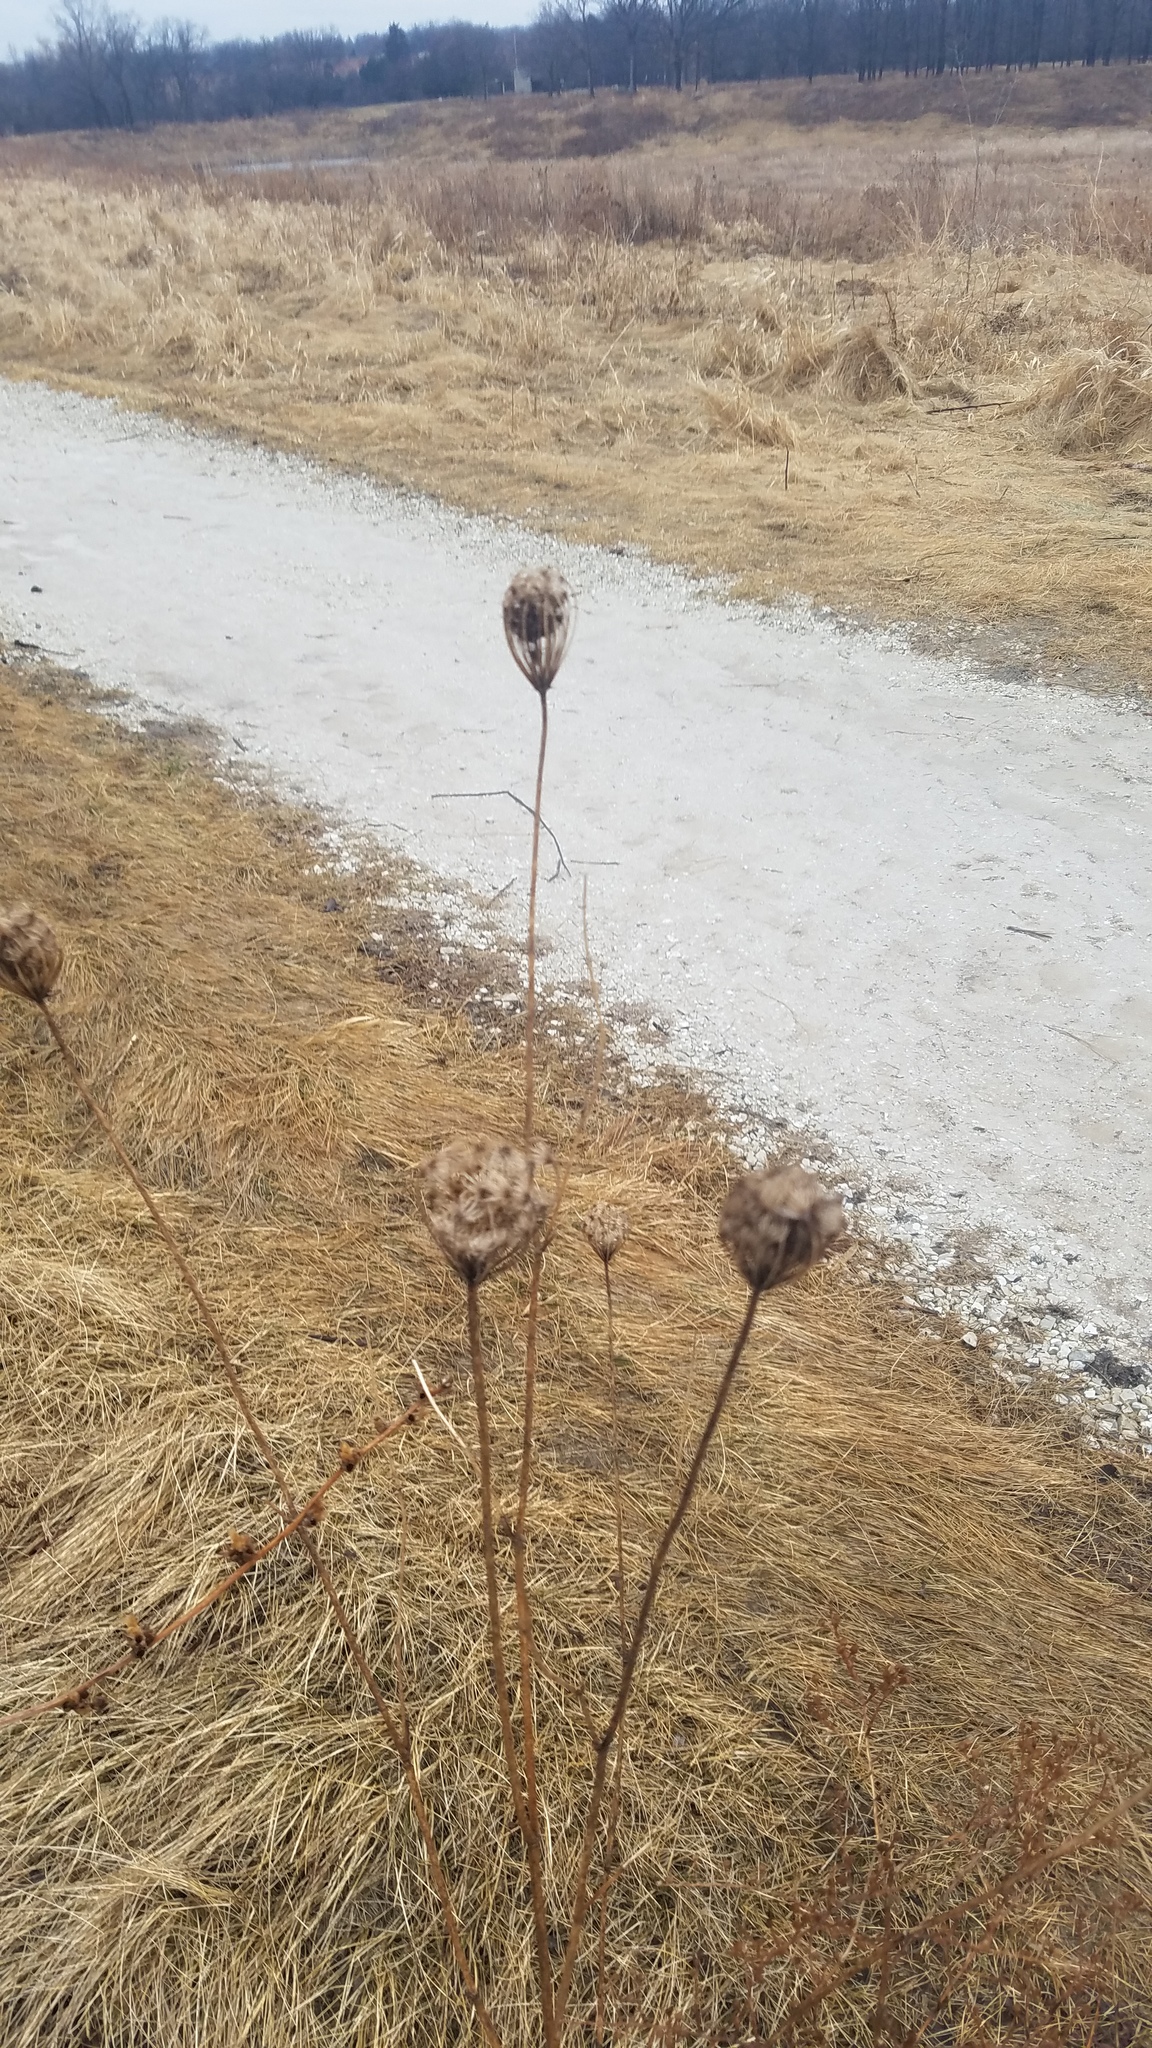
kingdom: Plantae
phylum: Tracheophyta
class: Magnoliopsida
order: Apiales
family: Apiaceae
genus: Daucus
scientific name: Daucus carota
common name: Wild carrot
